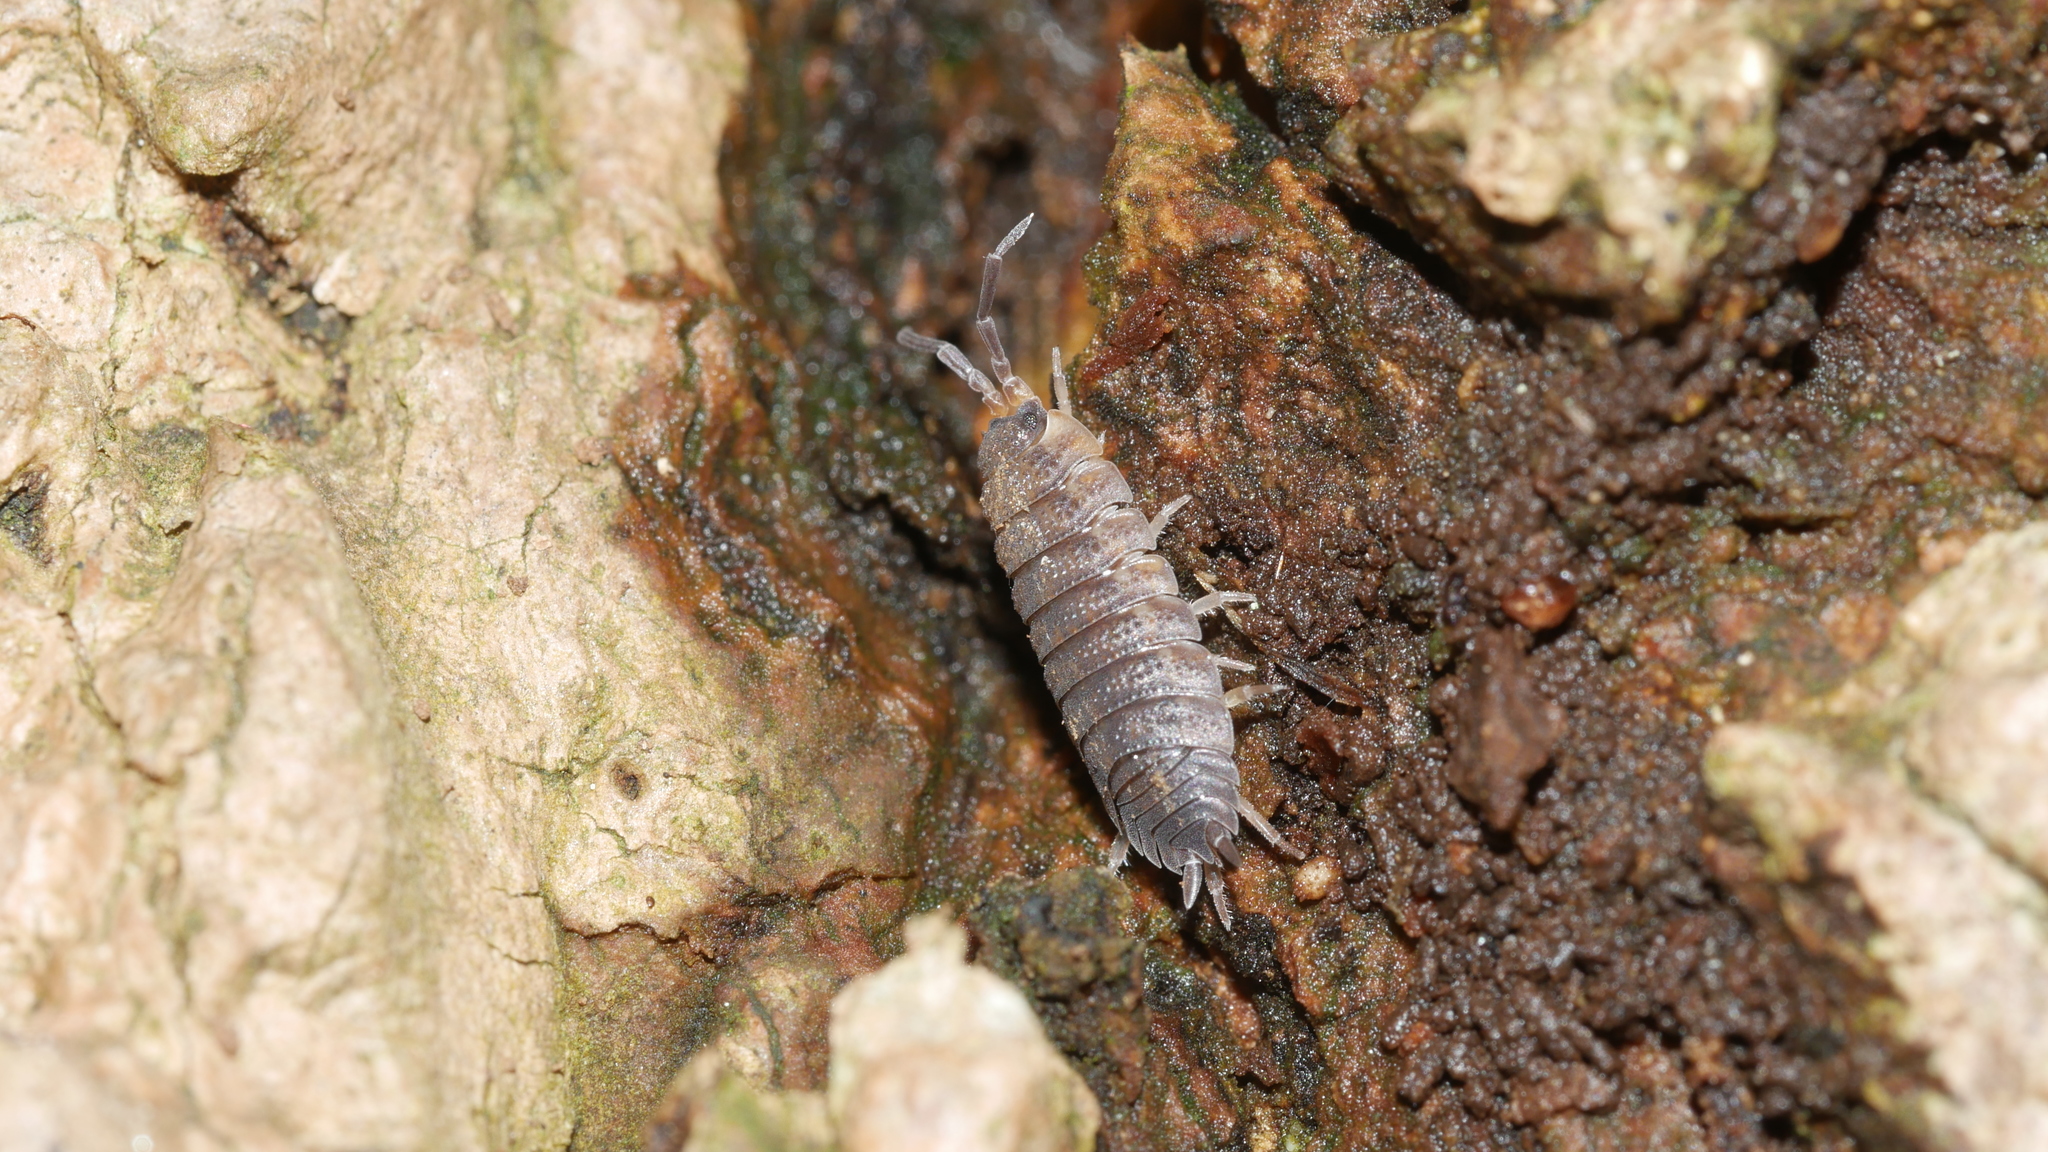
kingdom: Animalia
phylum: Arthropoda
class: Malacostraca
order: Isopoda
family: Porcellionidae
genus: Porcellio
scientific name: Porcellio scaber
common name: Common rough woodlouse
